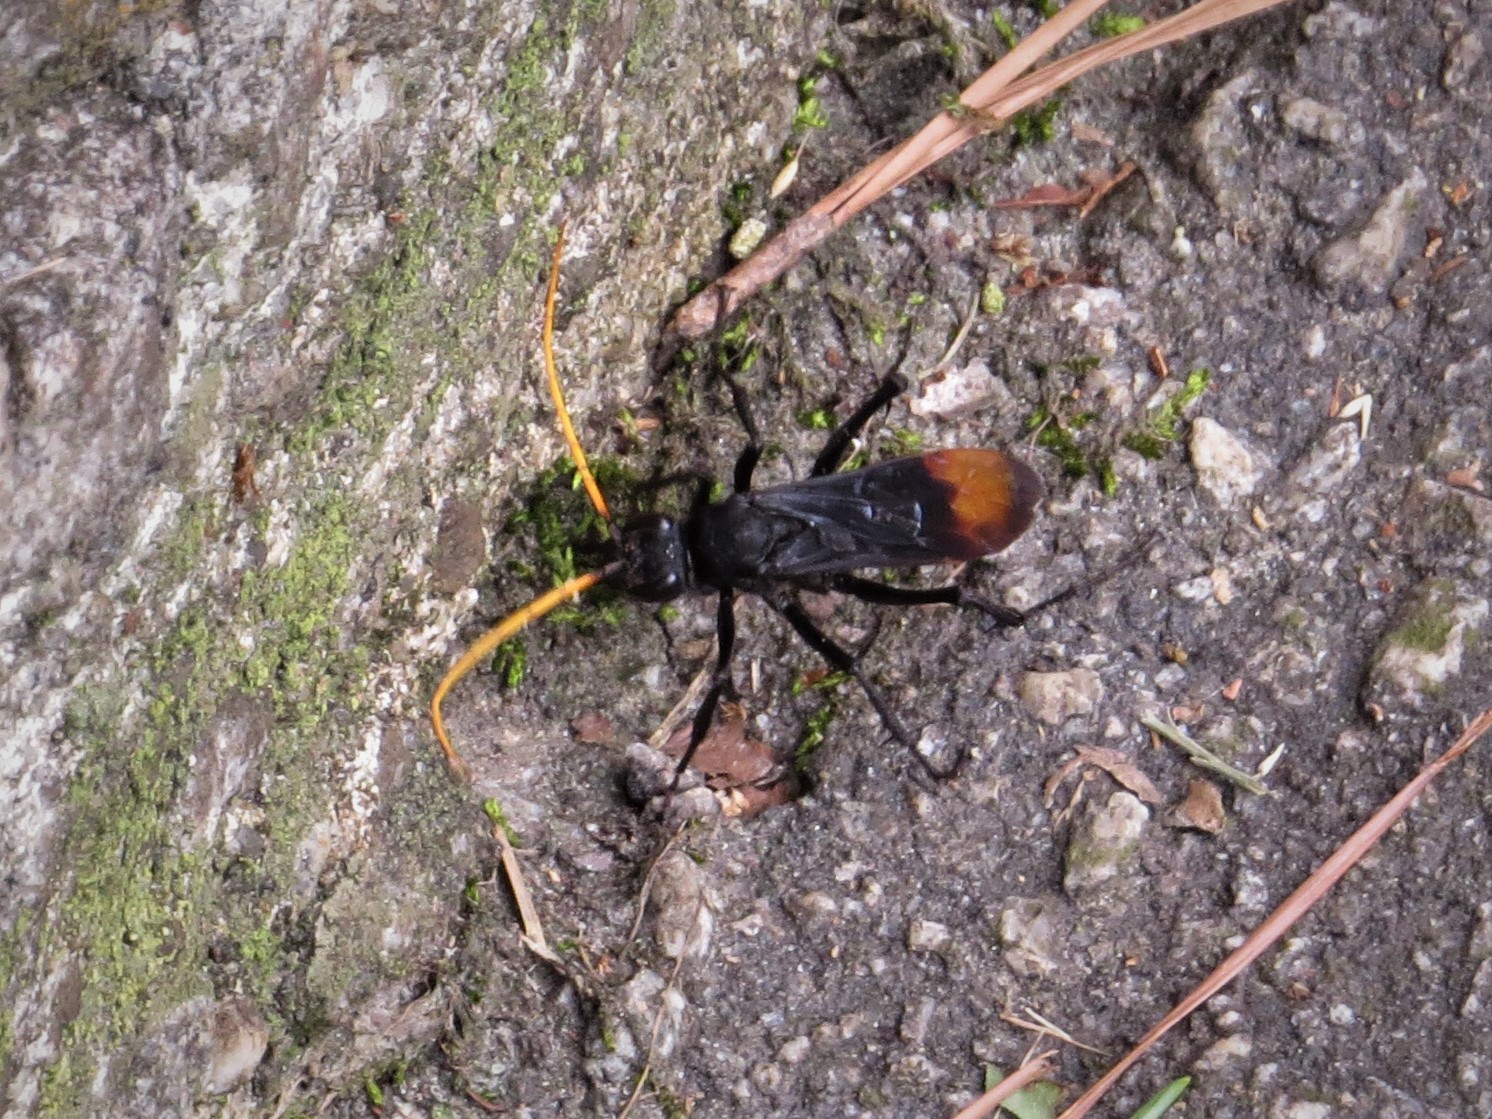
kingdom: Animalia
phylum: Arthropoda
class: Insecta
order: Hymenoptera
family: Pompilidae
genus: Entypus
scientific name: Entypus unifasciatus
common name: Eastern tawny-horned spider wasp
